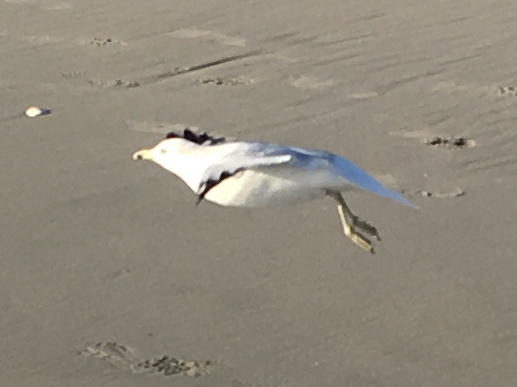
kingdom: Animalia
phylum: Chordata
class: Aves
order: Charadriiformes
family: Laridae
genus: Larus
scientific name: Larus delawarensis
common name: Ring-billed gull
